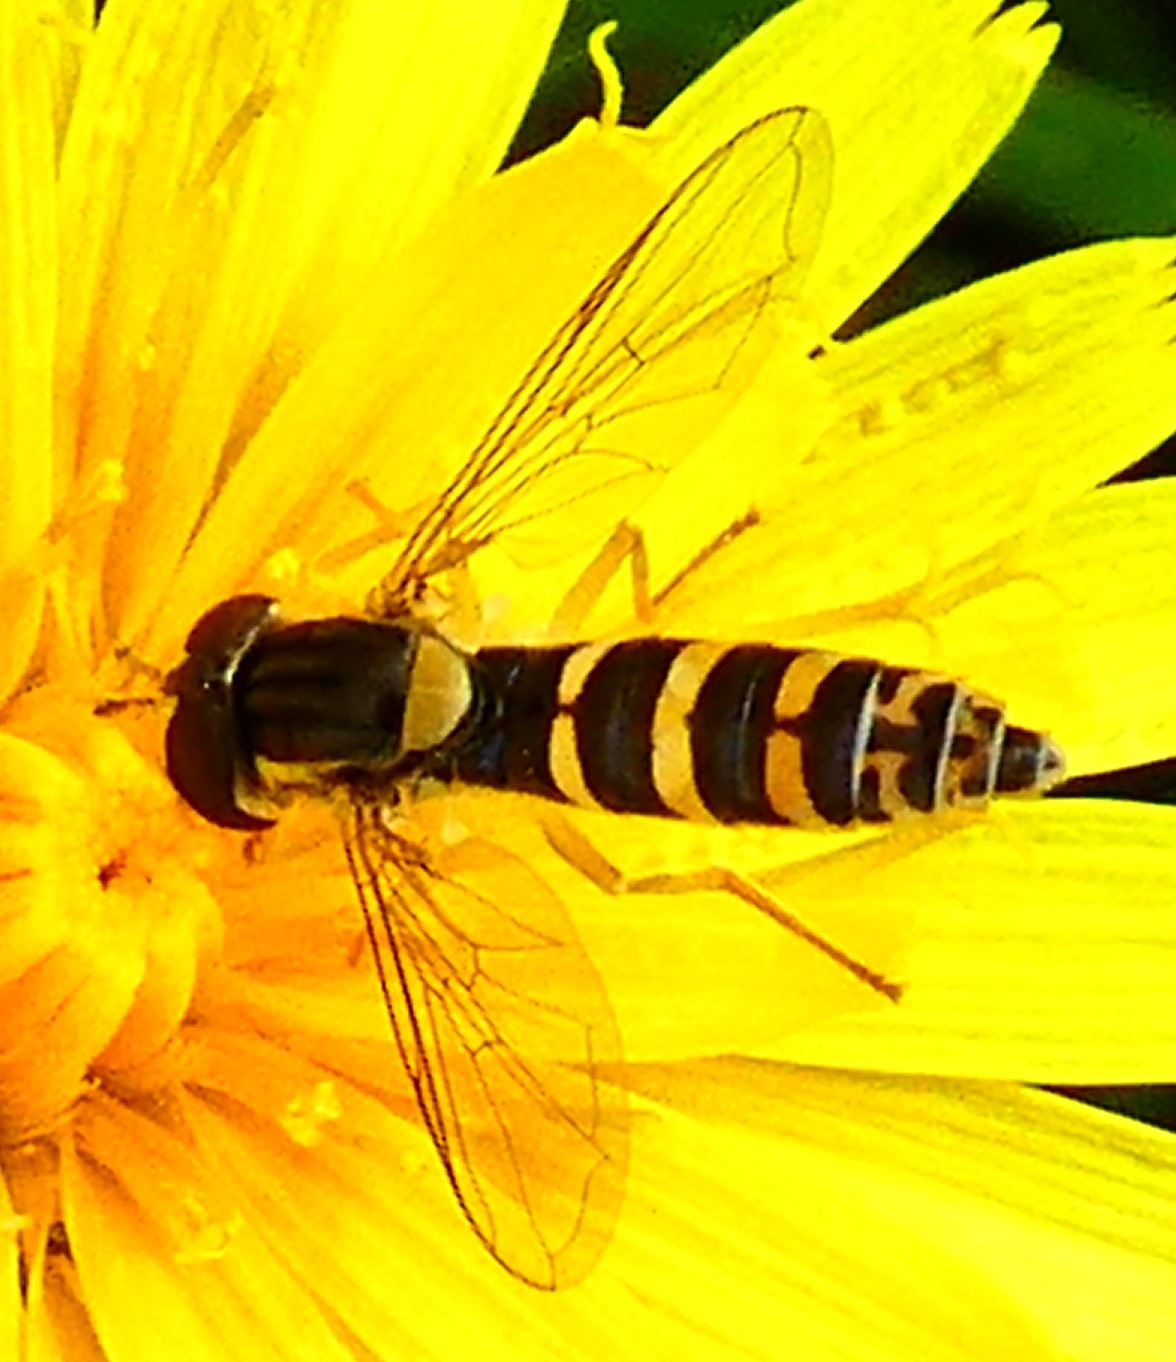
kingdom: Animalia
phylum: Arthropoda
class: Insecta
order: Diptera
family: Syrphidae
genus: Sphaerophoria
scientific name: Sphaerophoria
